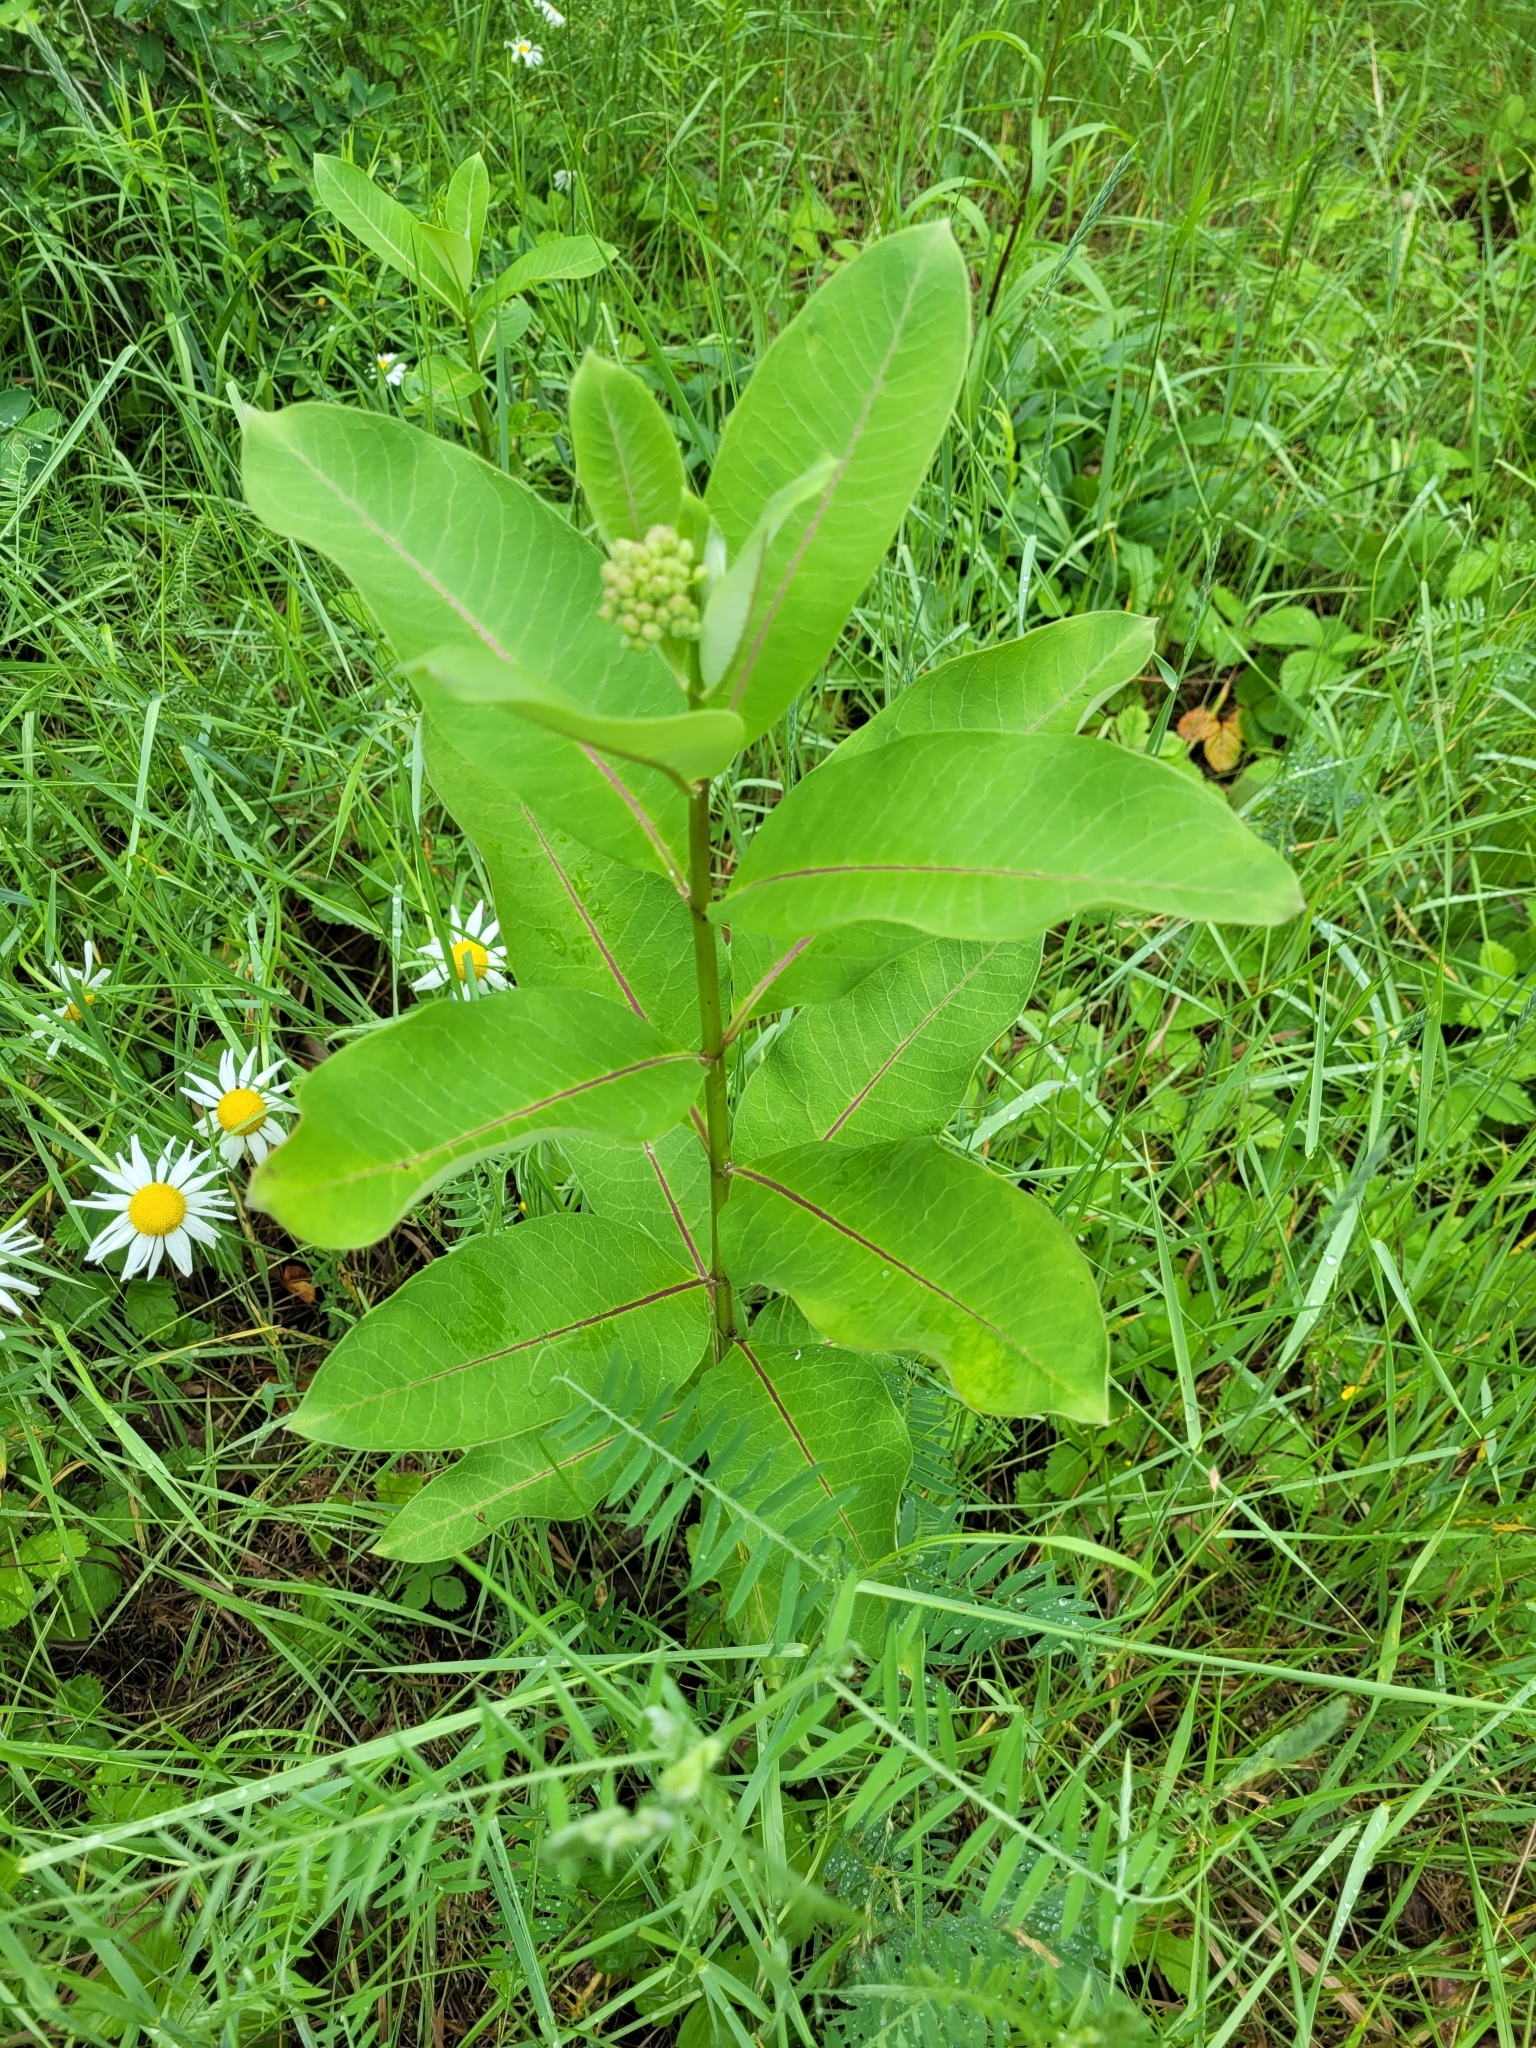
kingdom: Plantae
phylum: Tracheophyta
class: Magnoliopsida
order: Gentianales
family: Apocynaceae
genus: Asclepias
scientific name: Asclepias syriaca
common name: Common milkweed
